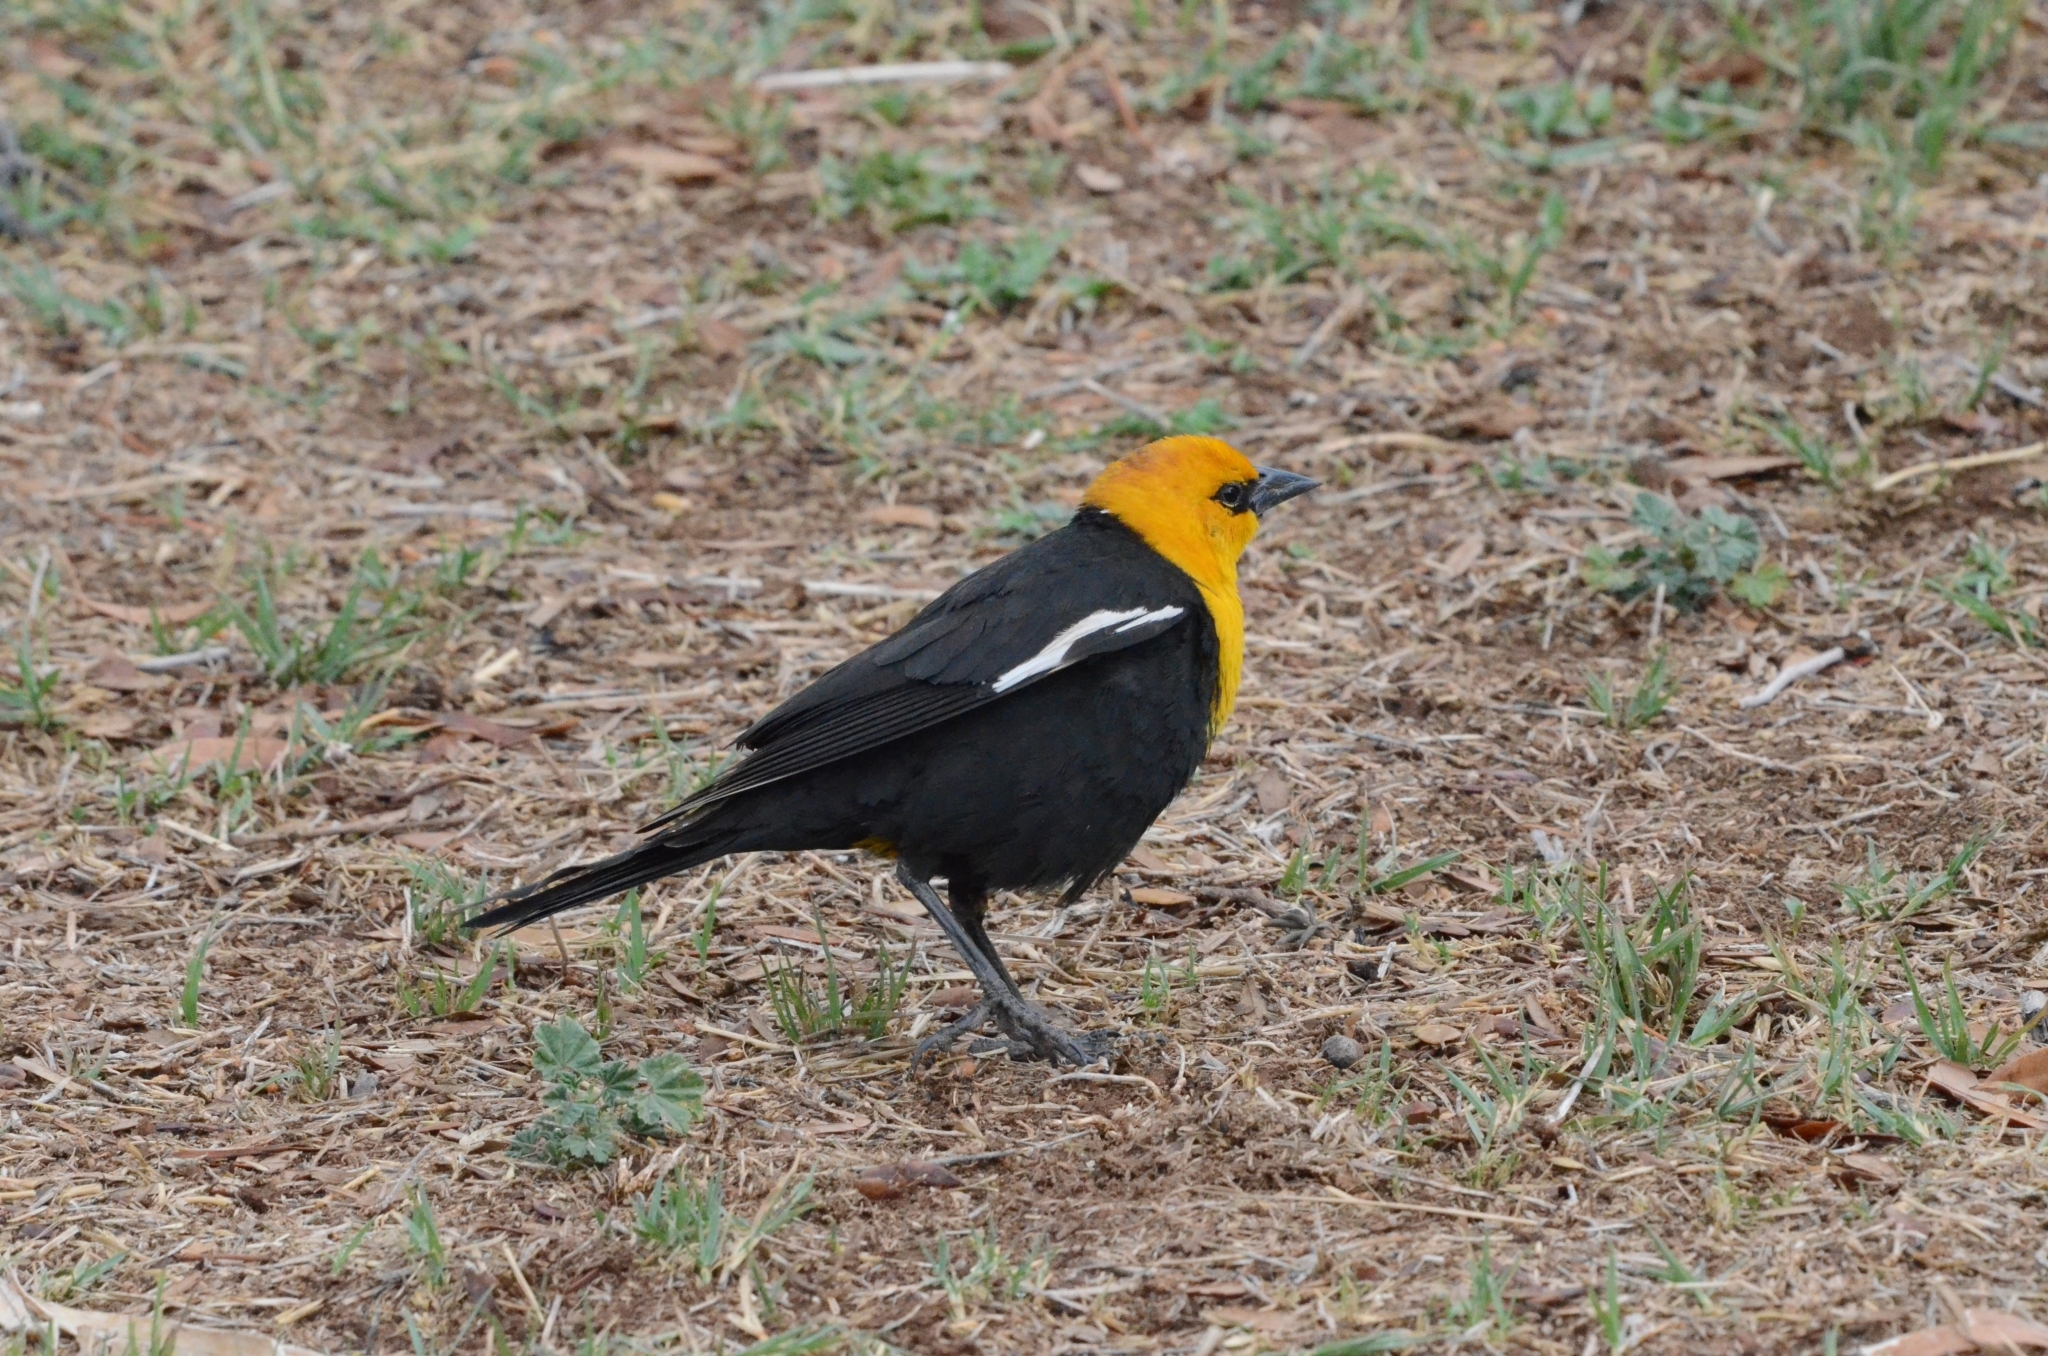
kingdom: Animalia
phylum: Chordata
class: Aves
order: Passeriformes
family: Icteridae
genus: Xanthocephalus
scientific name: Xanthocephalus xanthocephalus
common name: Yellow-headed blackbird
